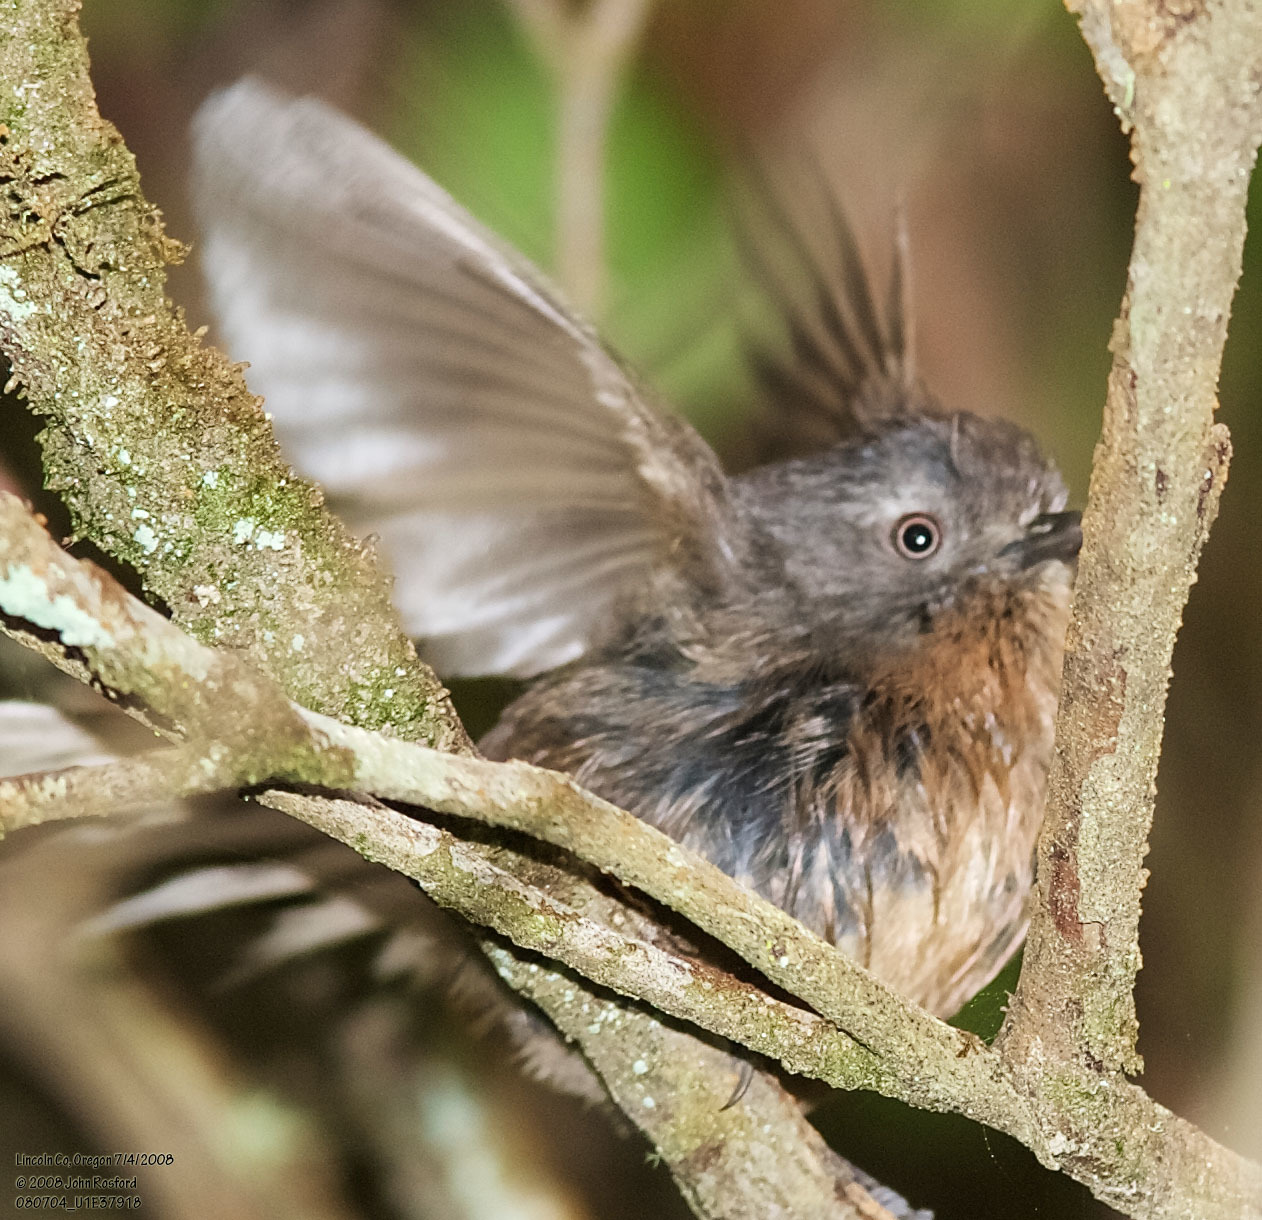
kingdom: Animalia
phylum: Chordata
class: Aves
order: Passeriformes
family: Sylviidae
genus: Chamaea
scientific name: Chamaea fasciata
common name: Wrentit
